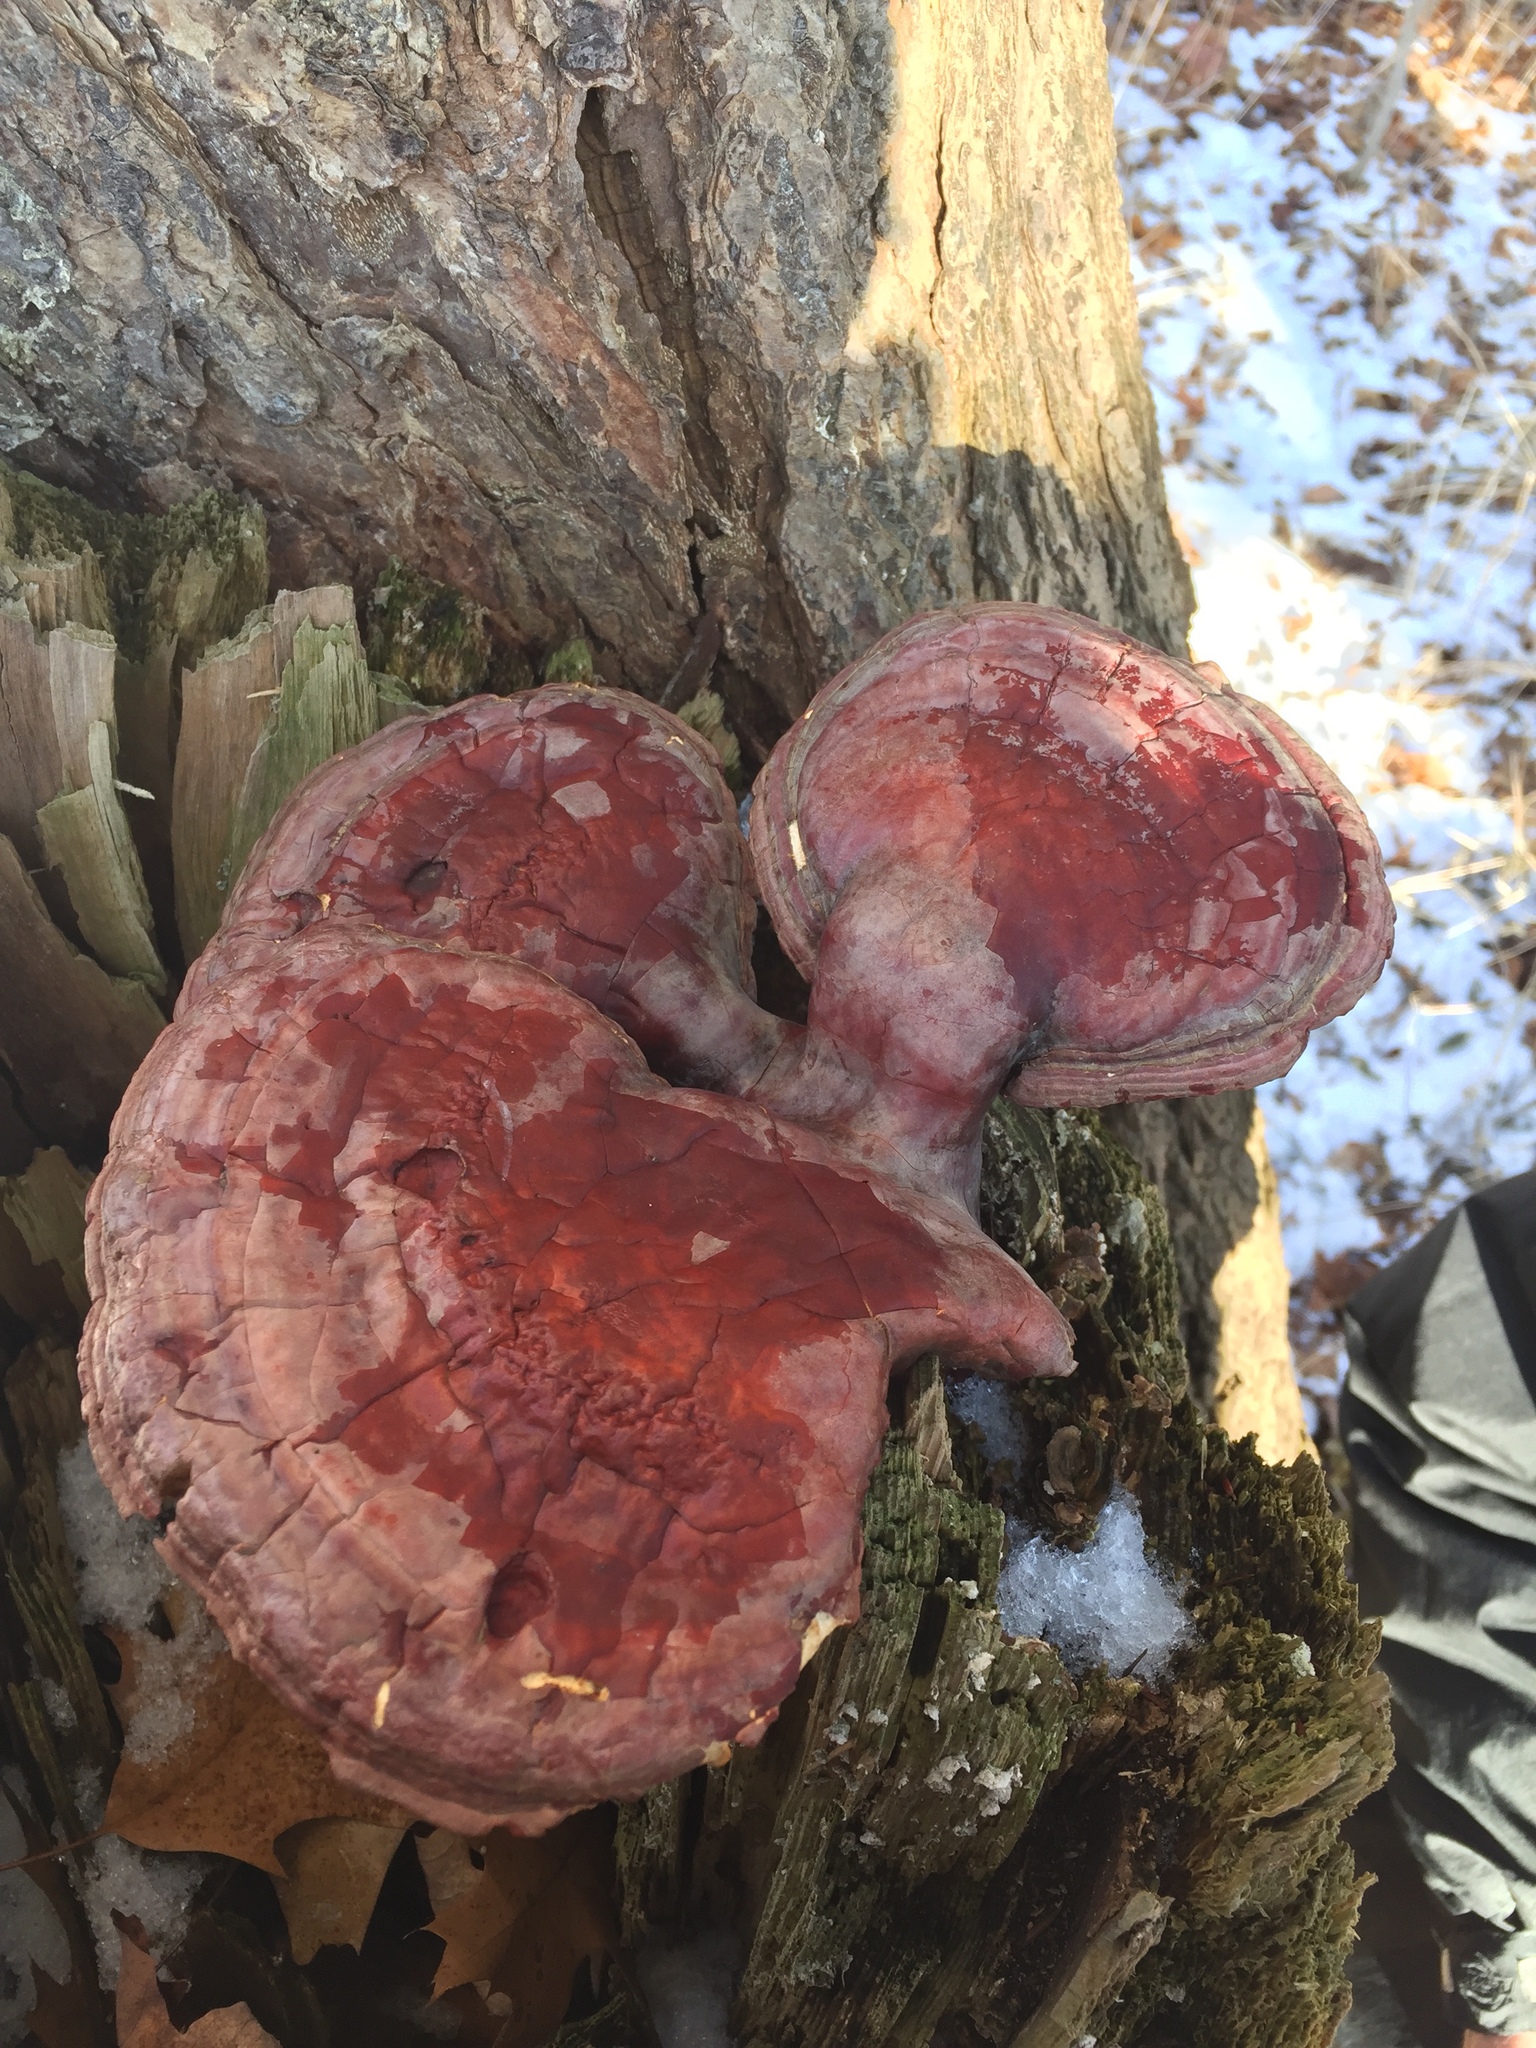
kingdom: Fungi
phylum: Basidiomycota
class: Agaricomycetes
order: Polyporales
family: Polyporaceae
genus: Ganoderma
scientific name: Ganoderma tsugae
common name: Hemlock varnish shelf
